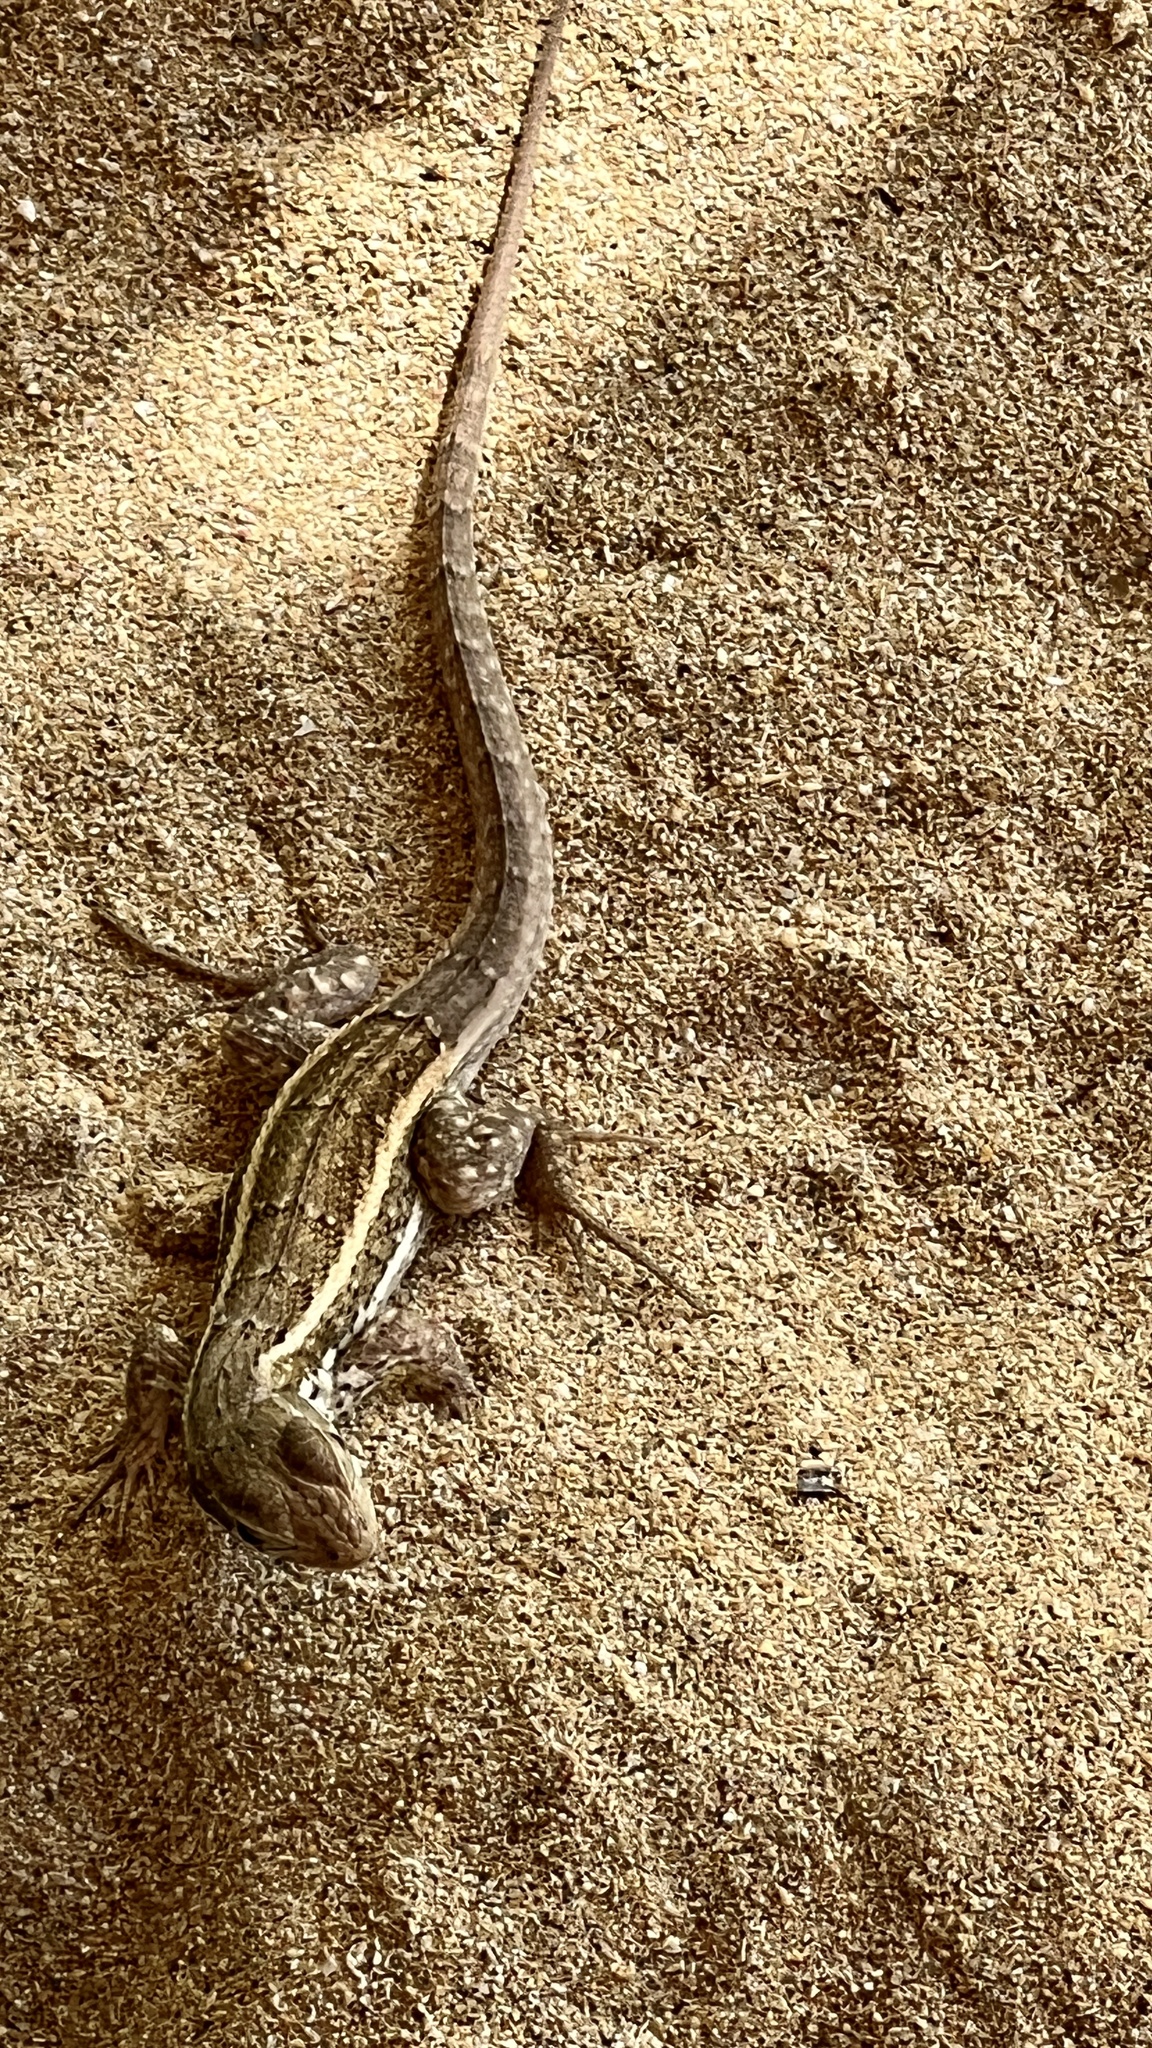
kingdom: Animalia
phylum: Chordata
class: Squamata
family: Leiocephalidae
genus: Leiocephalus
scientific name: Leiocephalus personatus
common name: Haitian curlytail lizard
